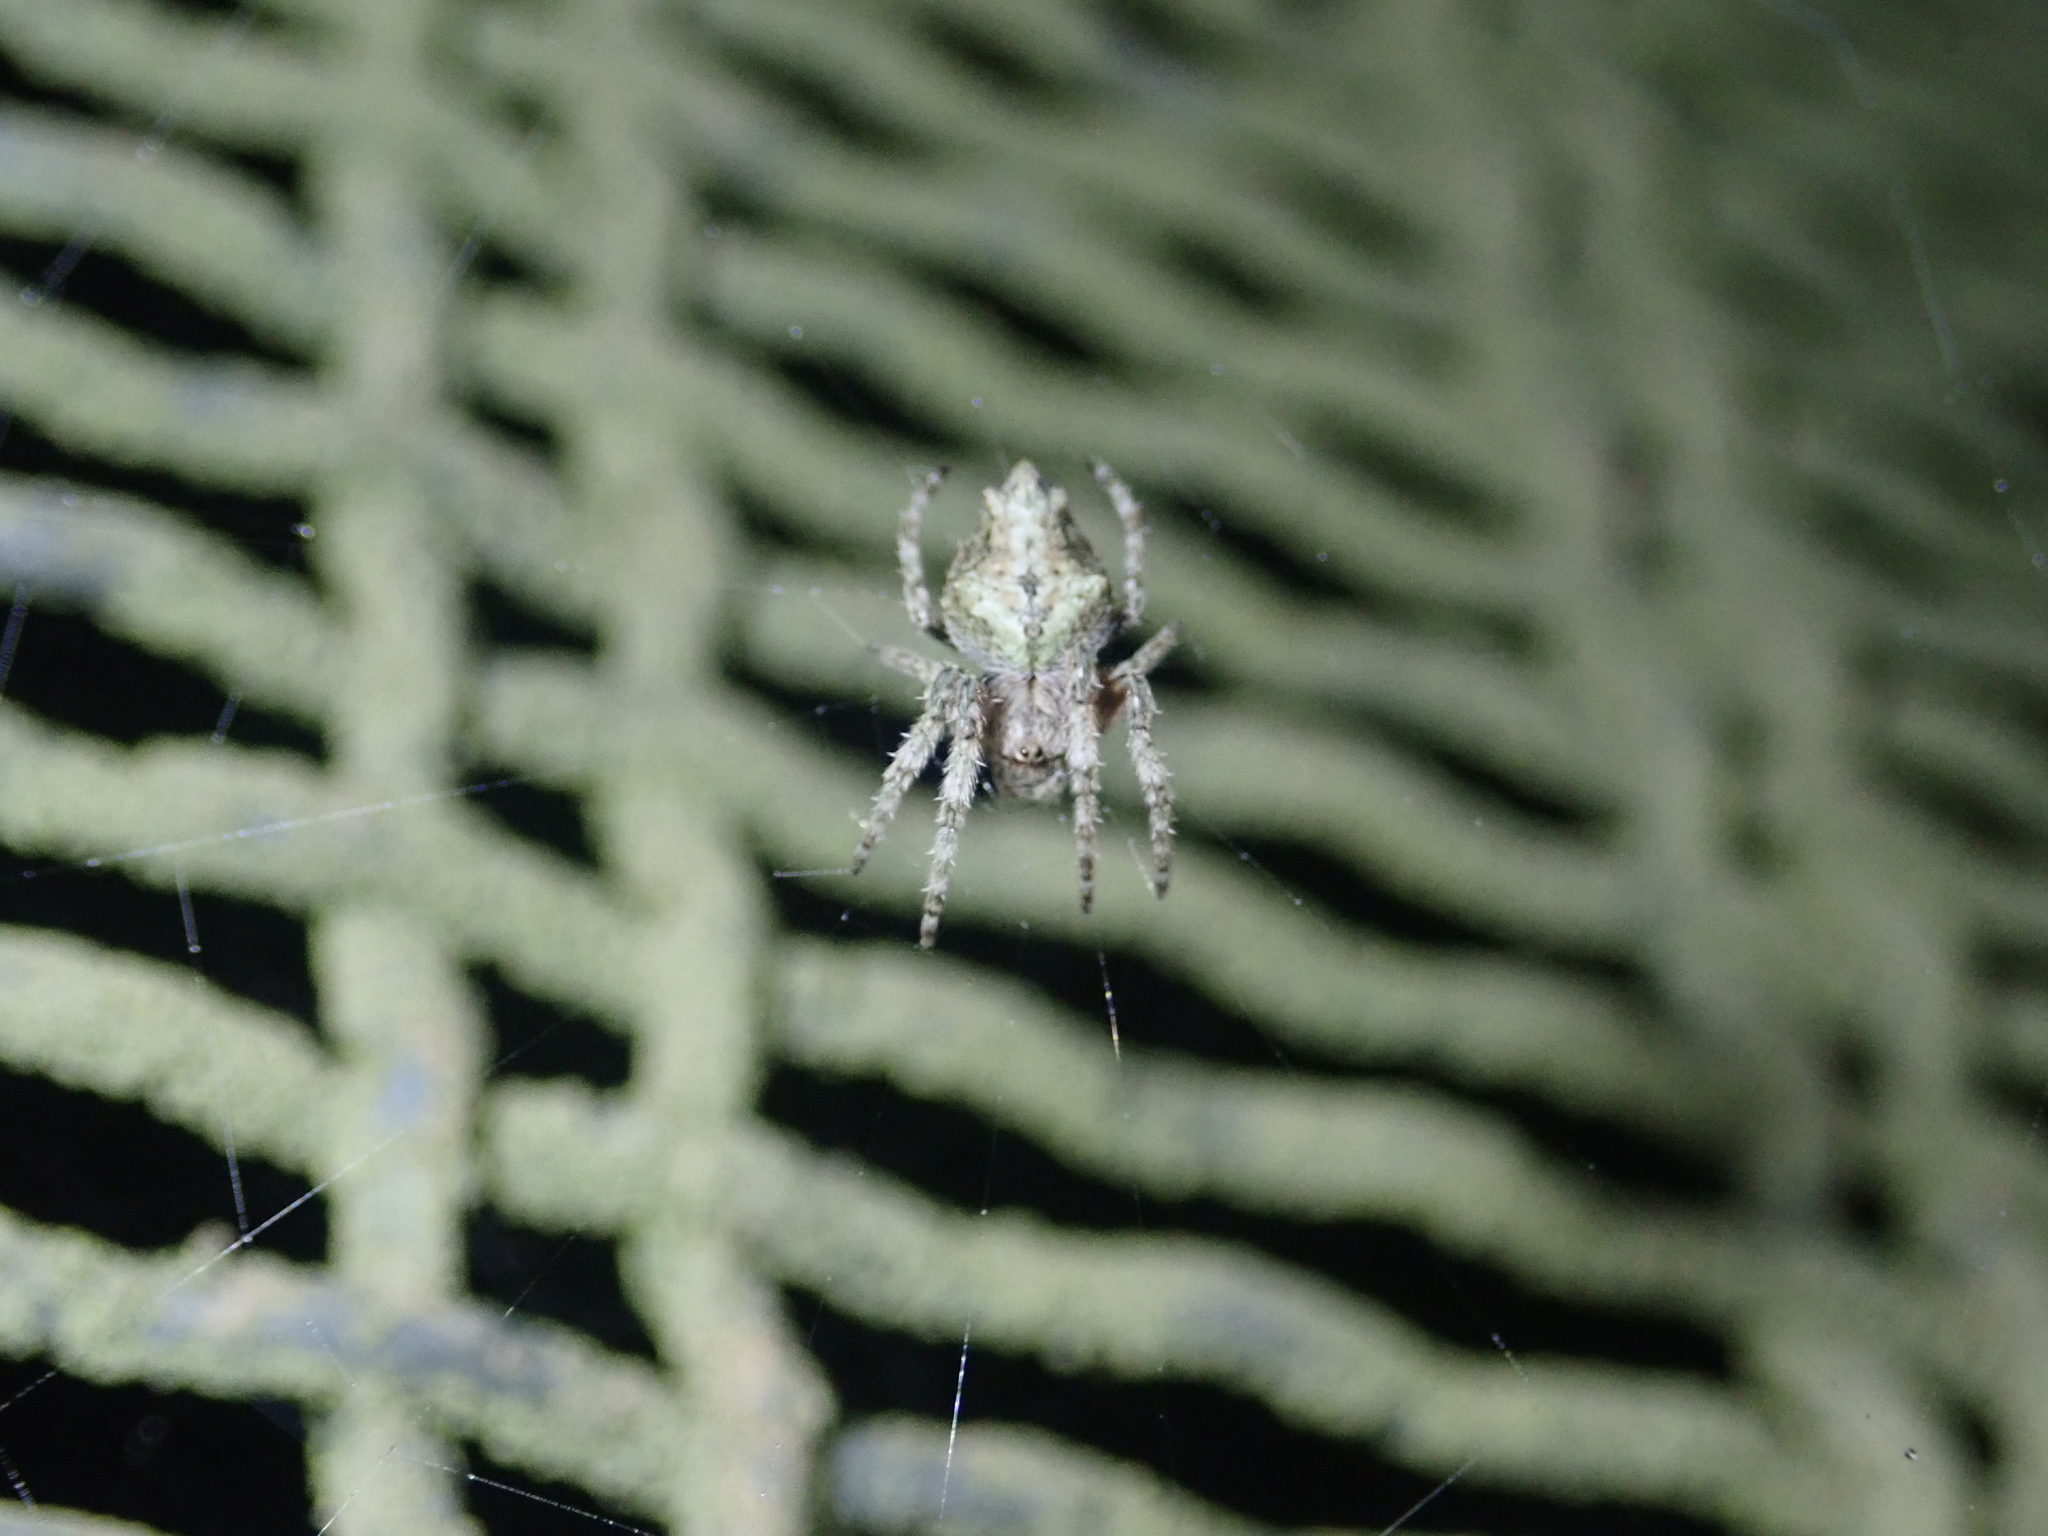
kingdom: Animalia
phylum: Arthropoda
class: Arachnida
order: Araneae
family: Araneidae
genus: Eriophora
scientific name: Eriophora pustulosa
